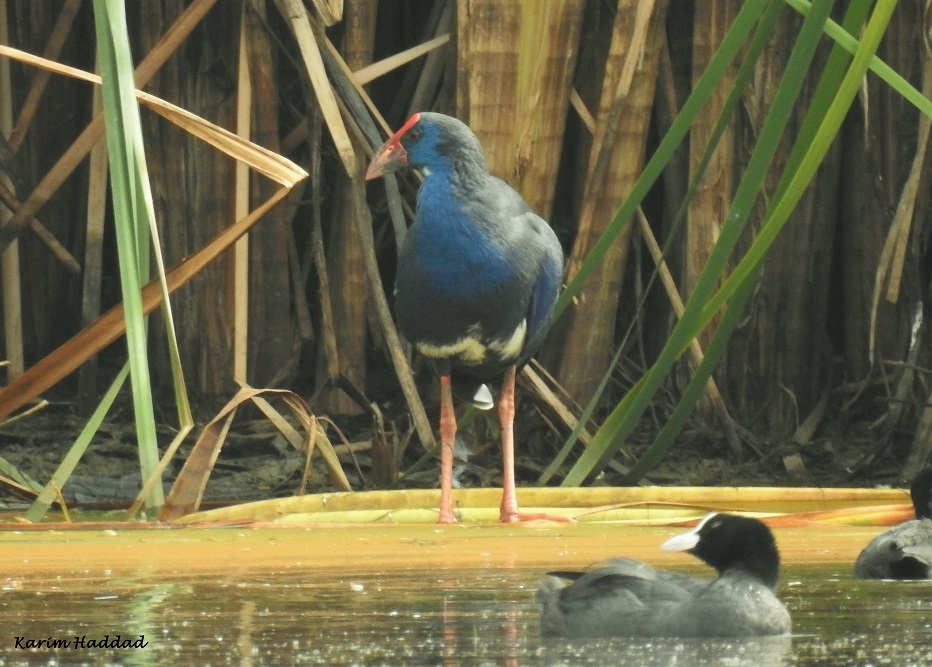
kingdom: Animalia
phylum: Chordata
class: Aves
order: Gruiformes
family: Rallidae
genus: Porphyrio
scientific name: Porphyrio porphyrio
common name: Purple swamphen
